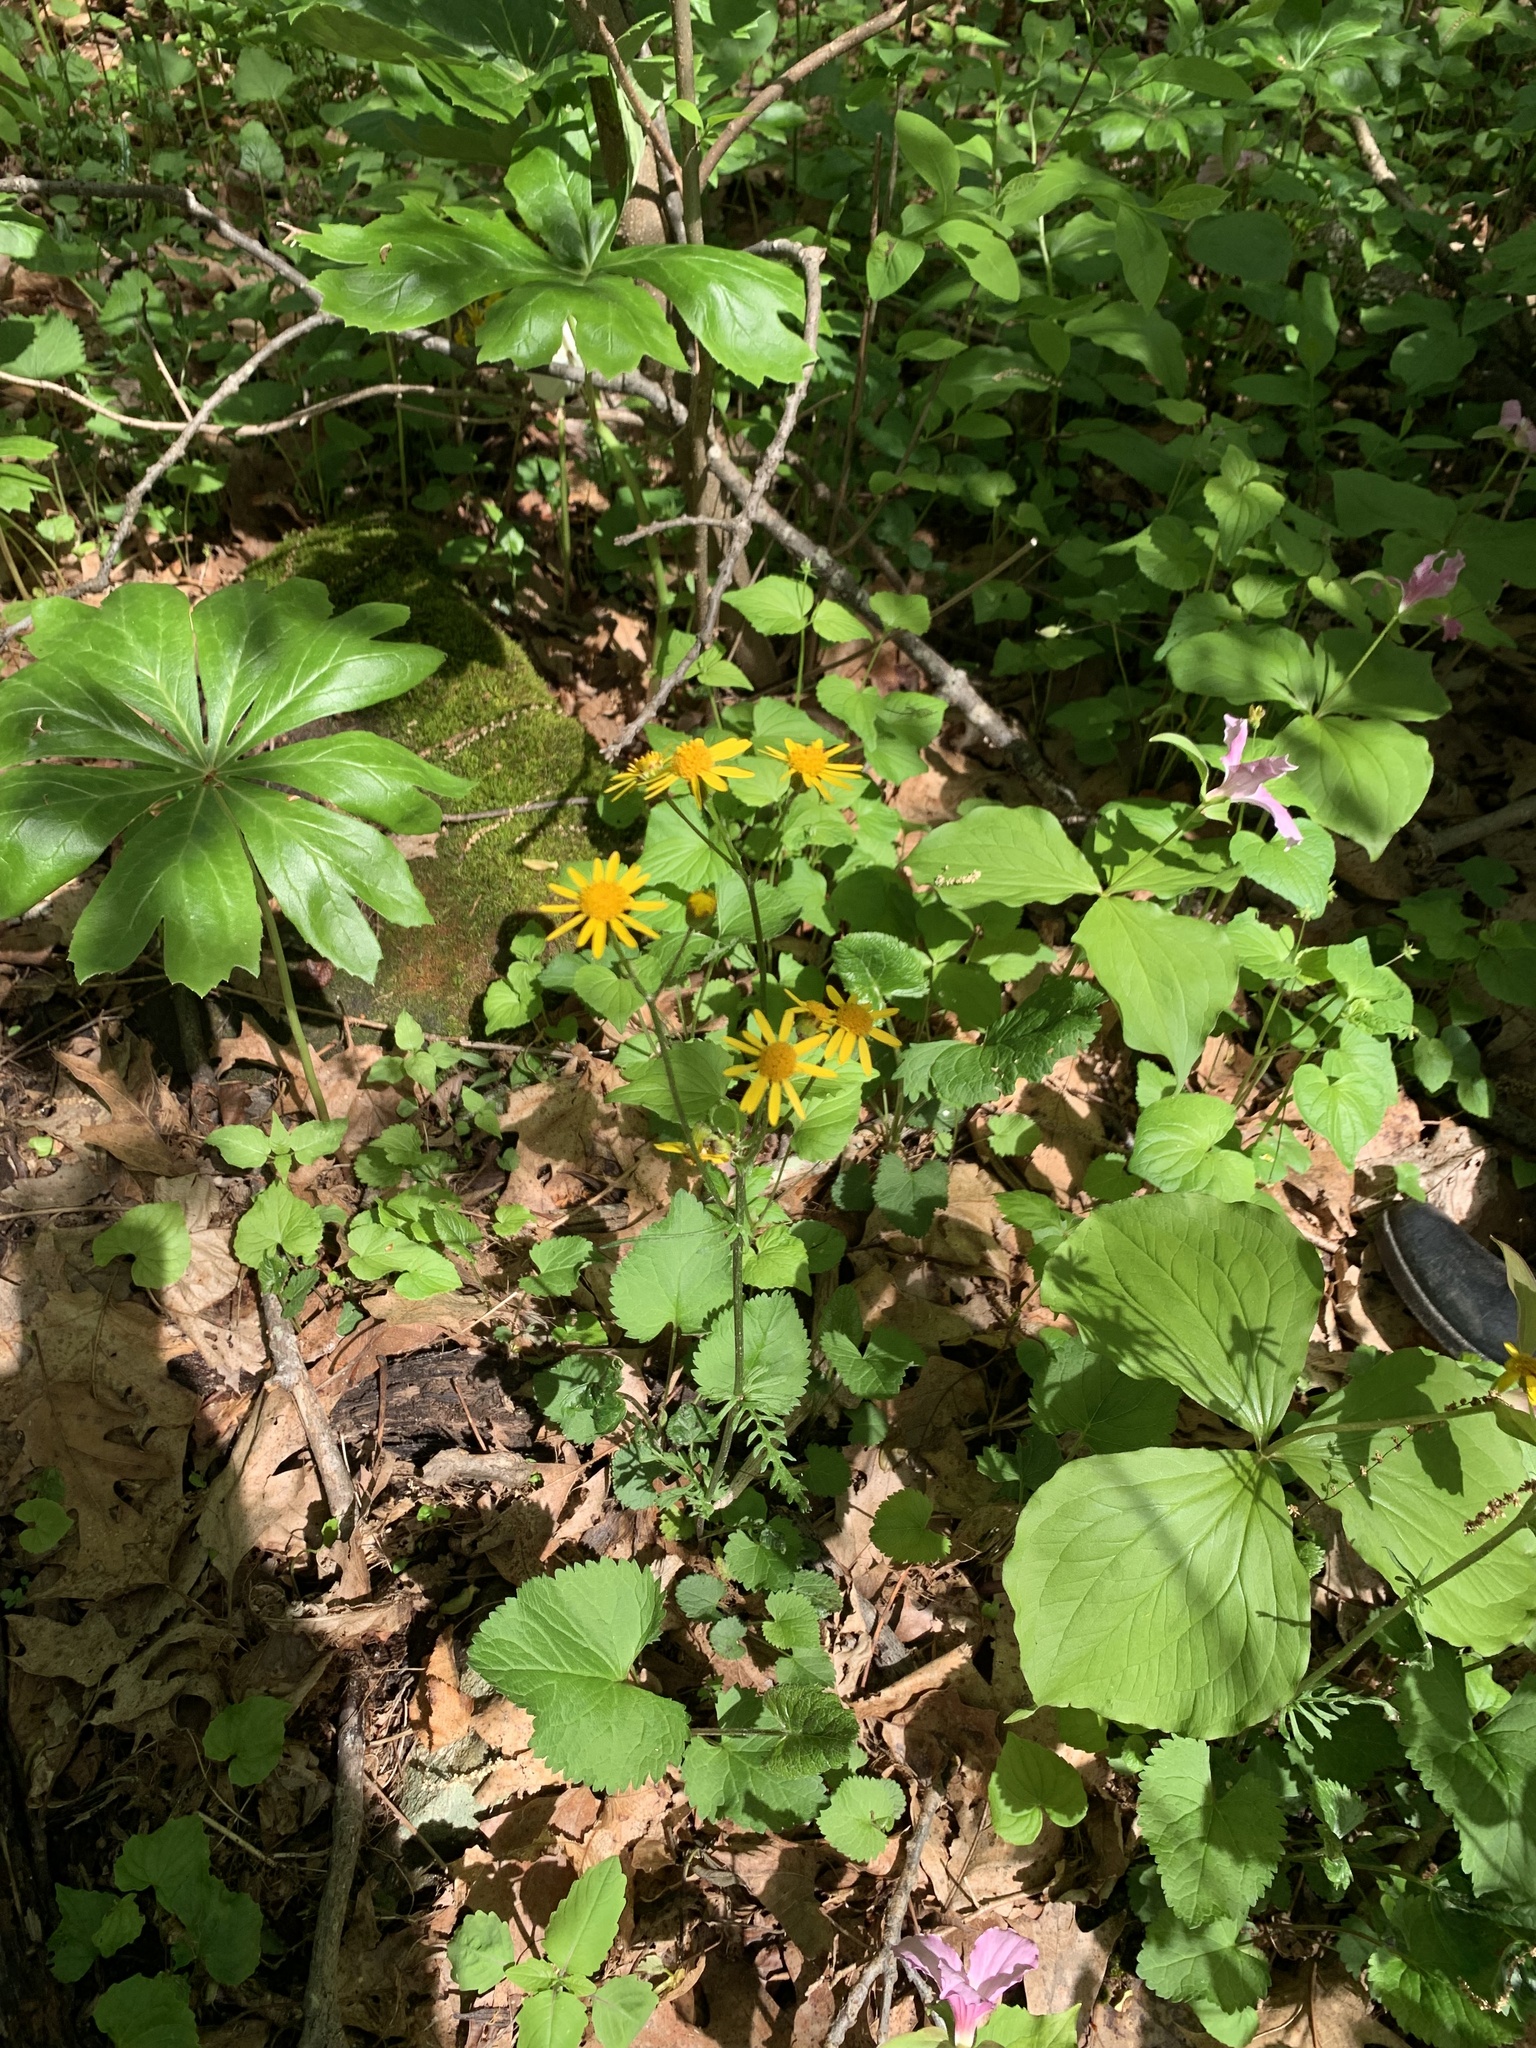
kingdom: Plantae
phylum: Tracheophyta
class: Magnoliopsida
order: Asterales
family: Asteraceae
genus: Packera
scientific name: Packera aurea
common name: Golden groundsel
